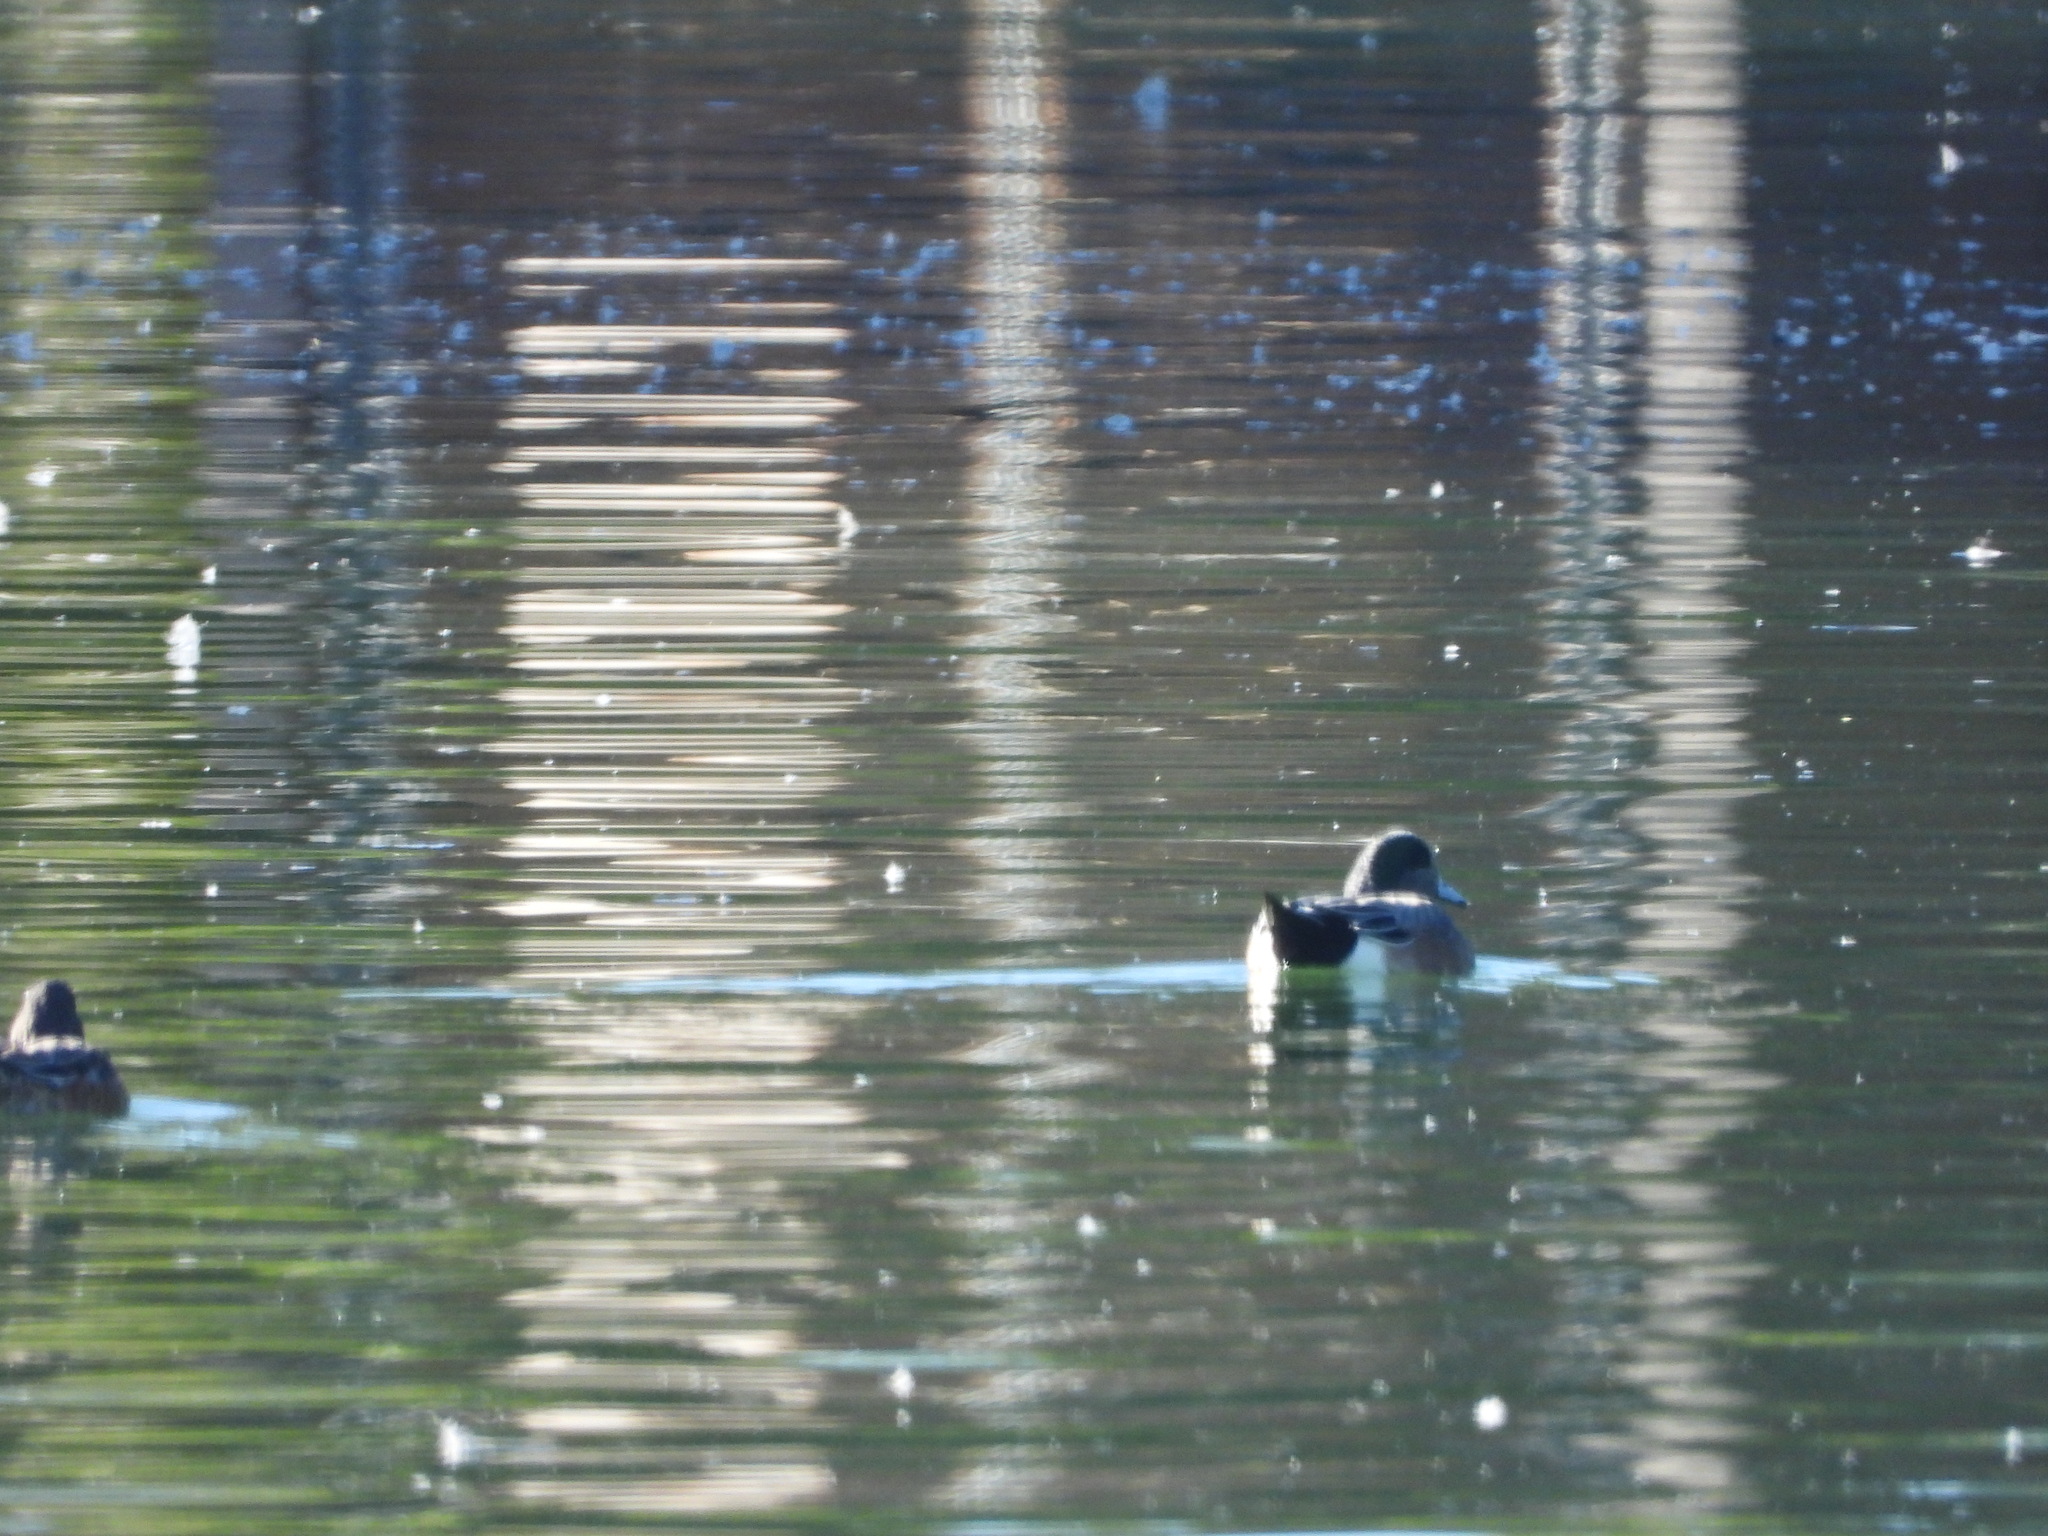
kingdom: Animalia
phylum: Chordata
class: Aves
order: Anseriformes
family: Anatidae
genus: Mareca
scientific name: Mareca americana
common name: American wigeon
